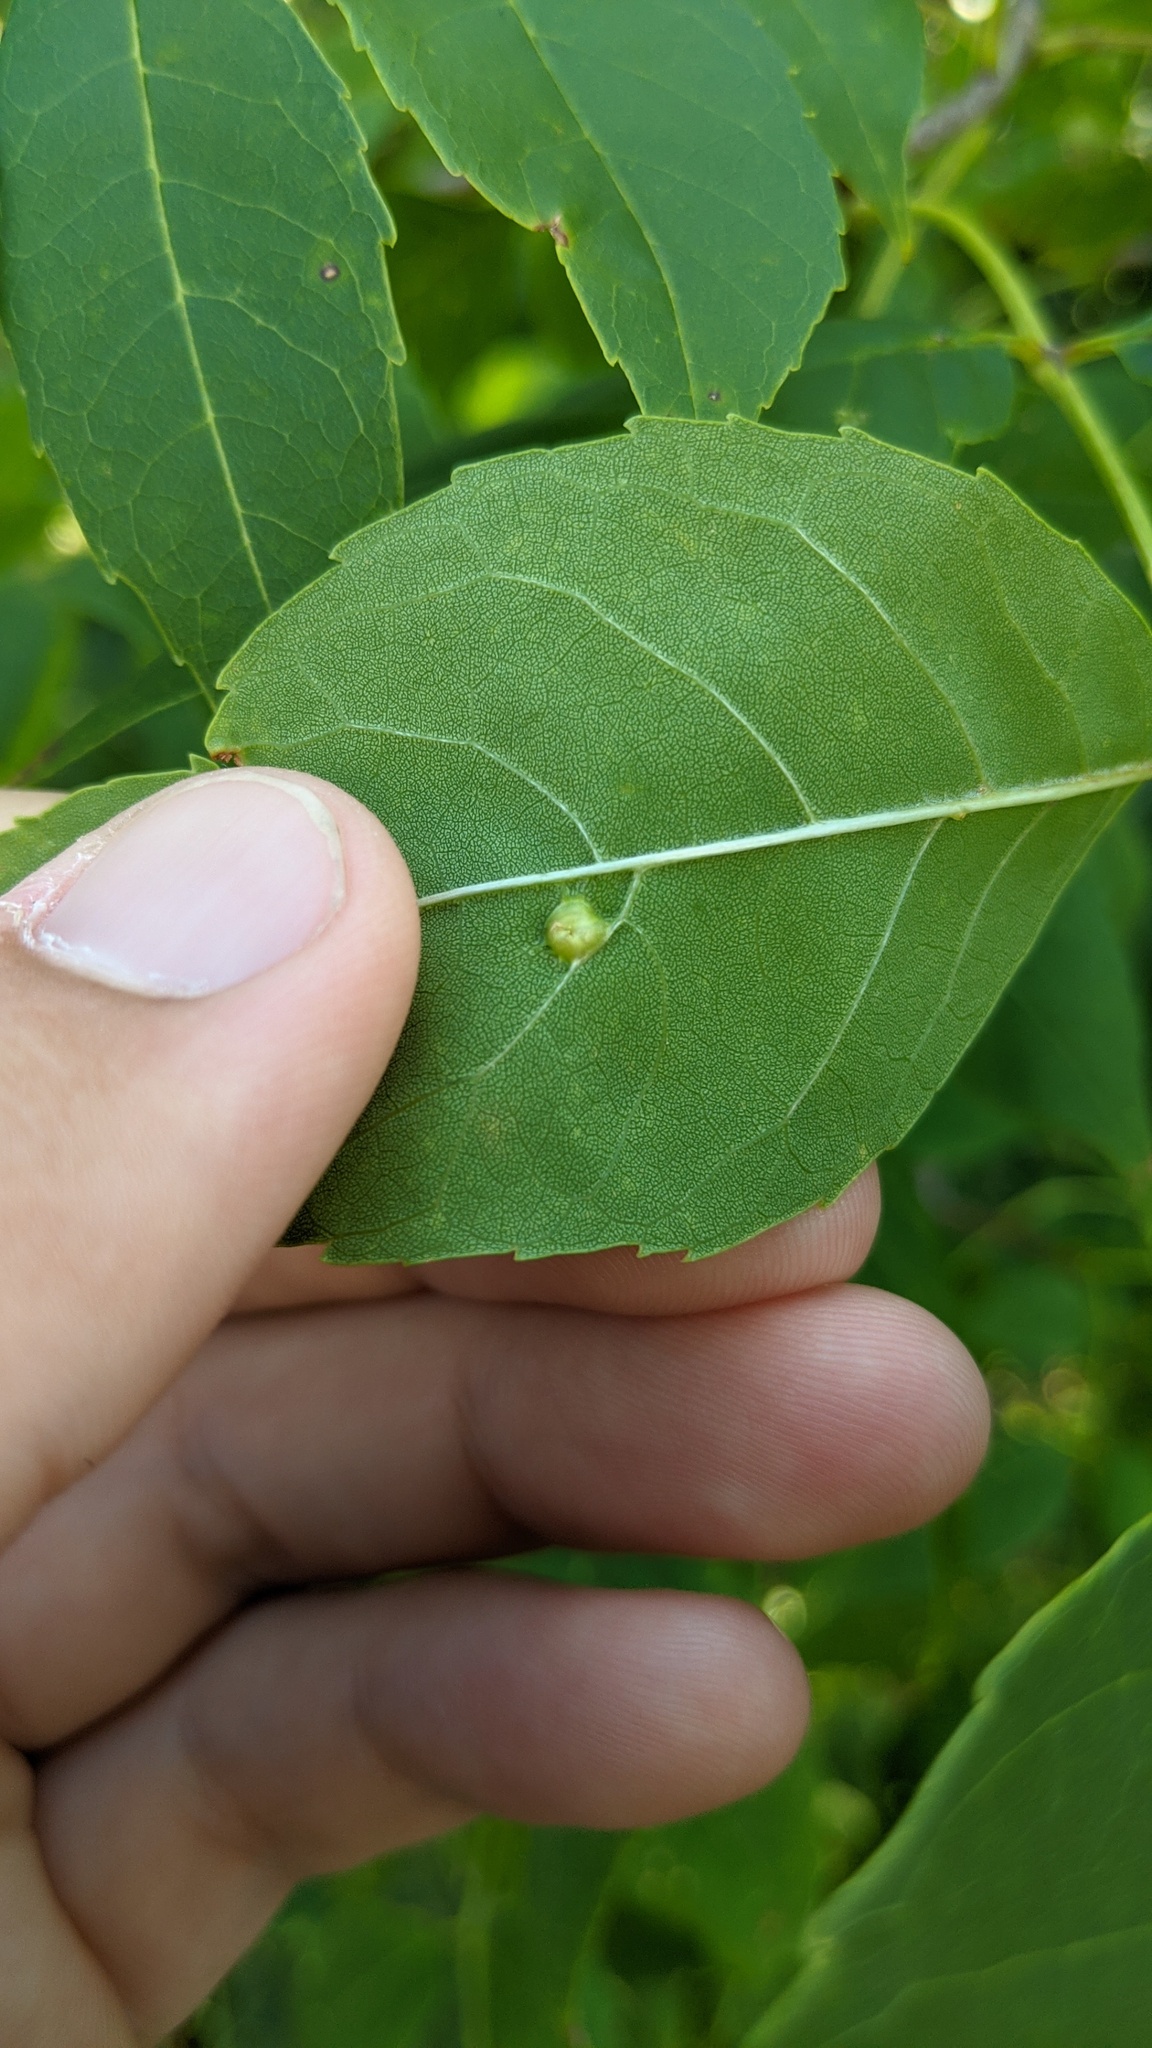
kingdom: Animalia
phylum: Arthropoda
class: Arachnida
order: Trombidiformes
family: Eriophyidae
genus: Aceria
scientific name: Aceria fraxinicola
